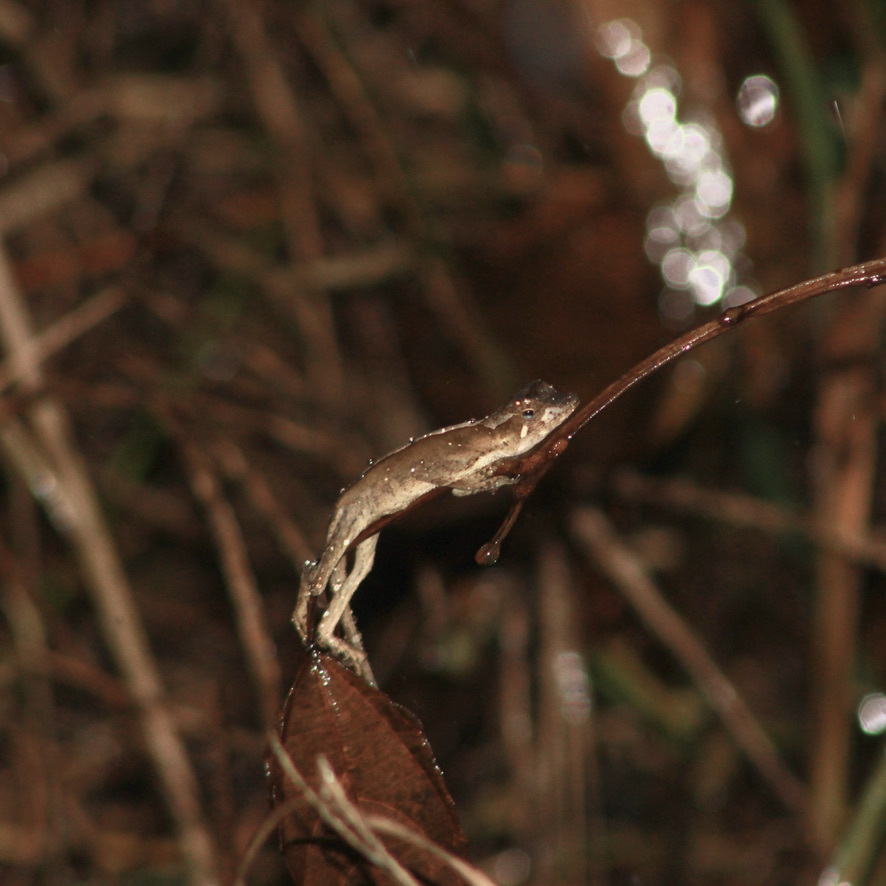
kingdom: Animalia
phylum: Chordata
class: Squamata
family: Dactyloidae
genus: Anolis
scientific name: Anolis planiceps
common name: Goldenscale anole
